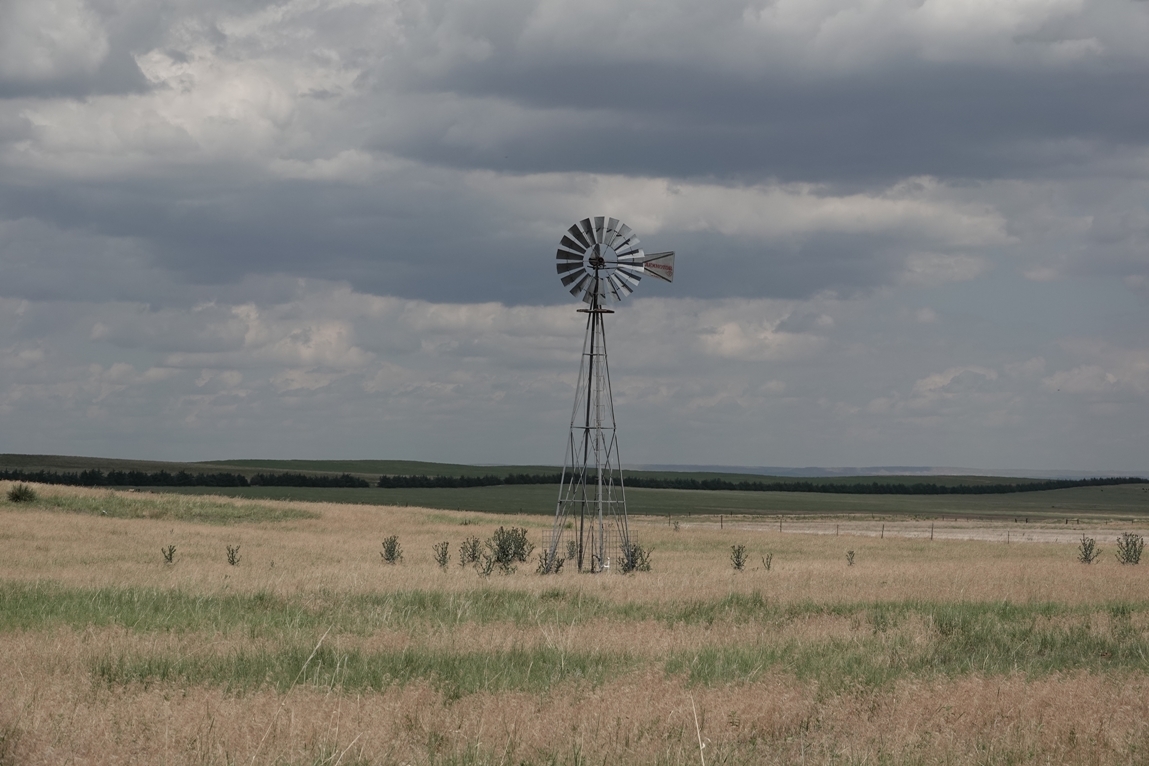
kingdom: Plantae
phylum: Tracheophyta
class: Magnoliopsida
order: Asterales
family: Asteraceae
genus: Onopordum
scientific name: Onopordum acanthium
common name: Scotch thistle
